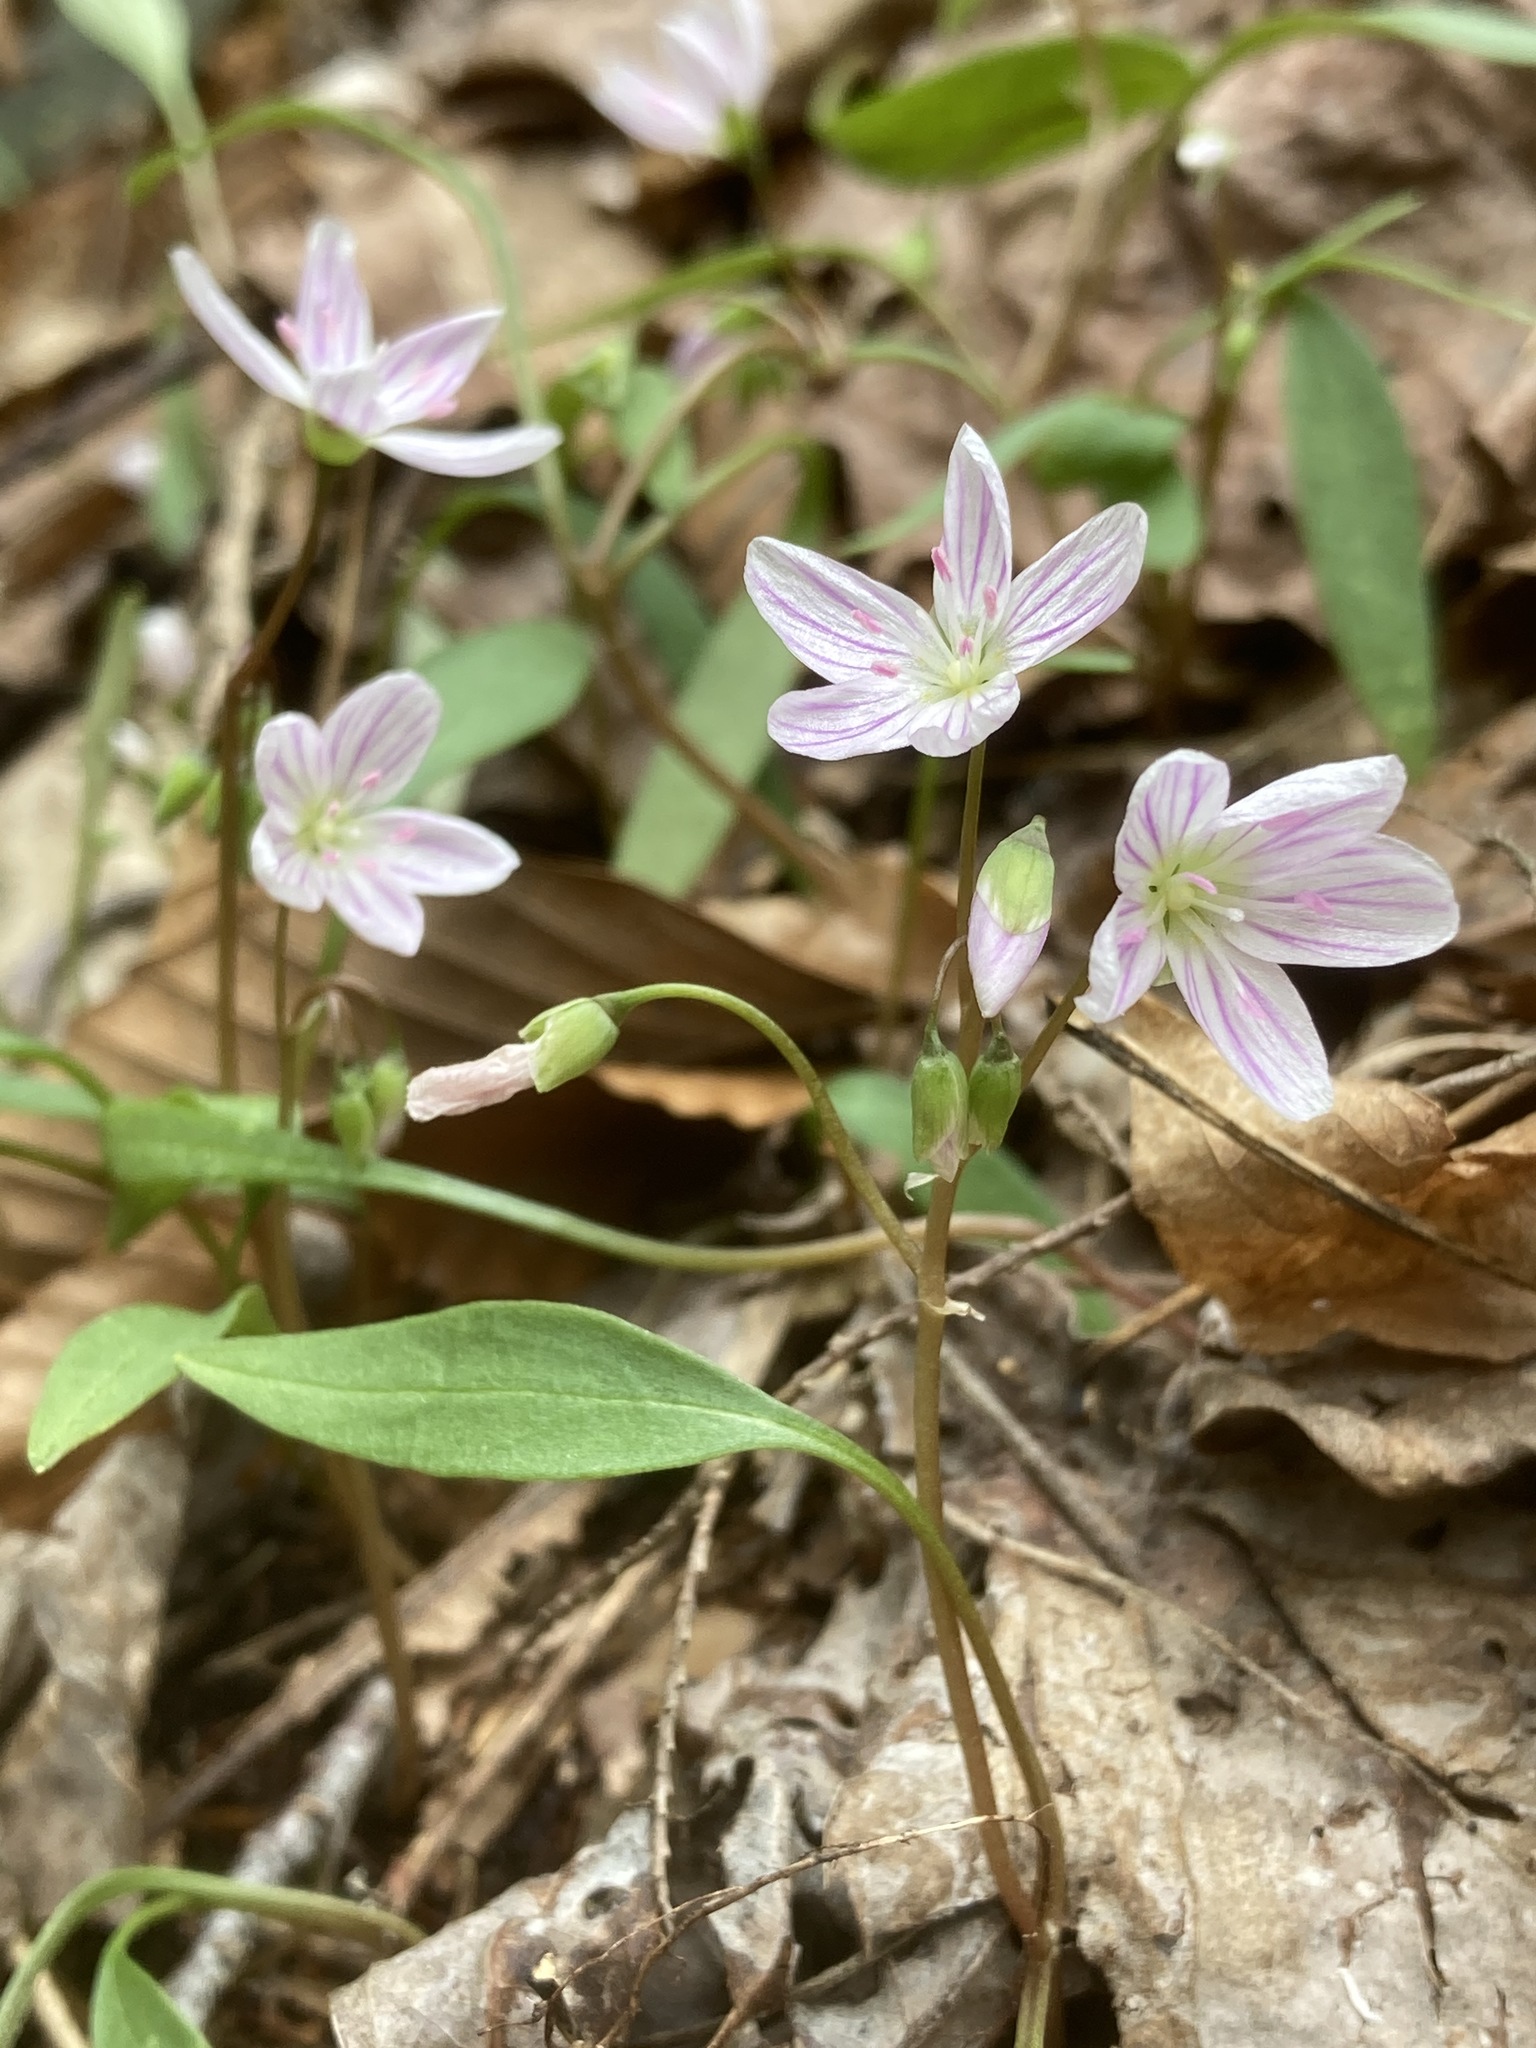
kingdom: Plantae
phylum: Tracheophyta
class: Magnoliopsida
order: Caryophyllales
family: Montiaceae
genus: Claytonia
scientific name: Claytonia caroliniana
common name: Carolina spring beauty
